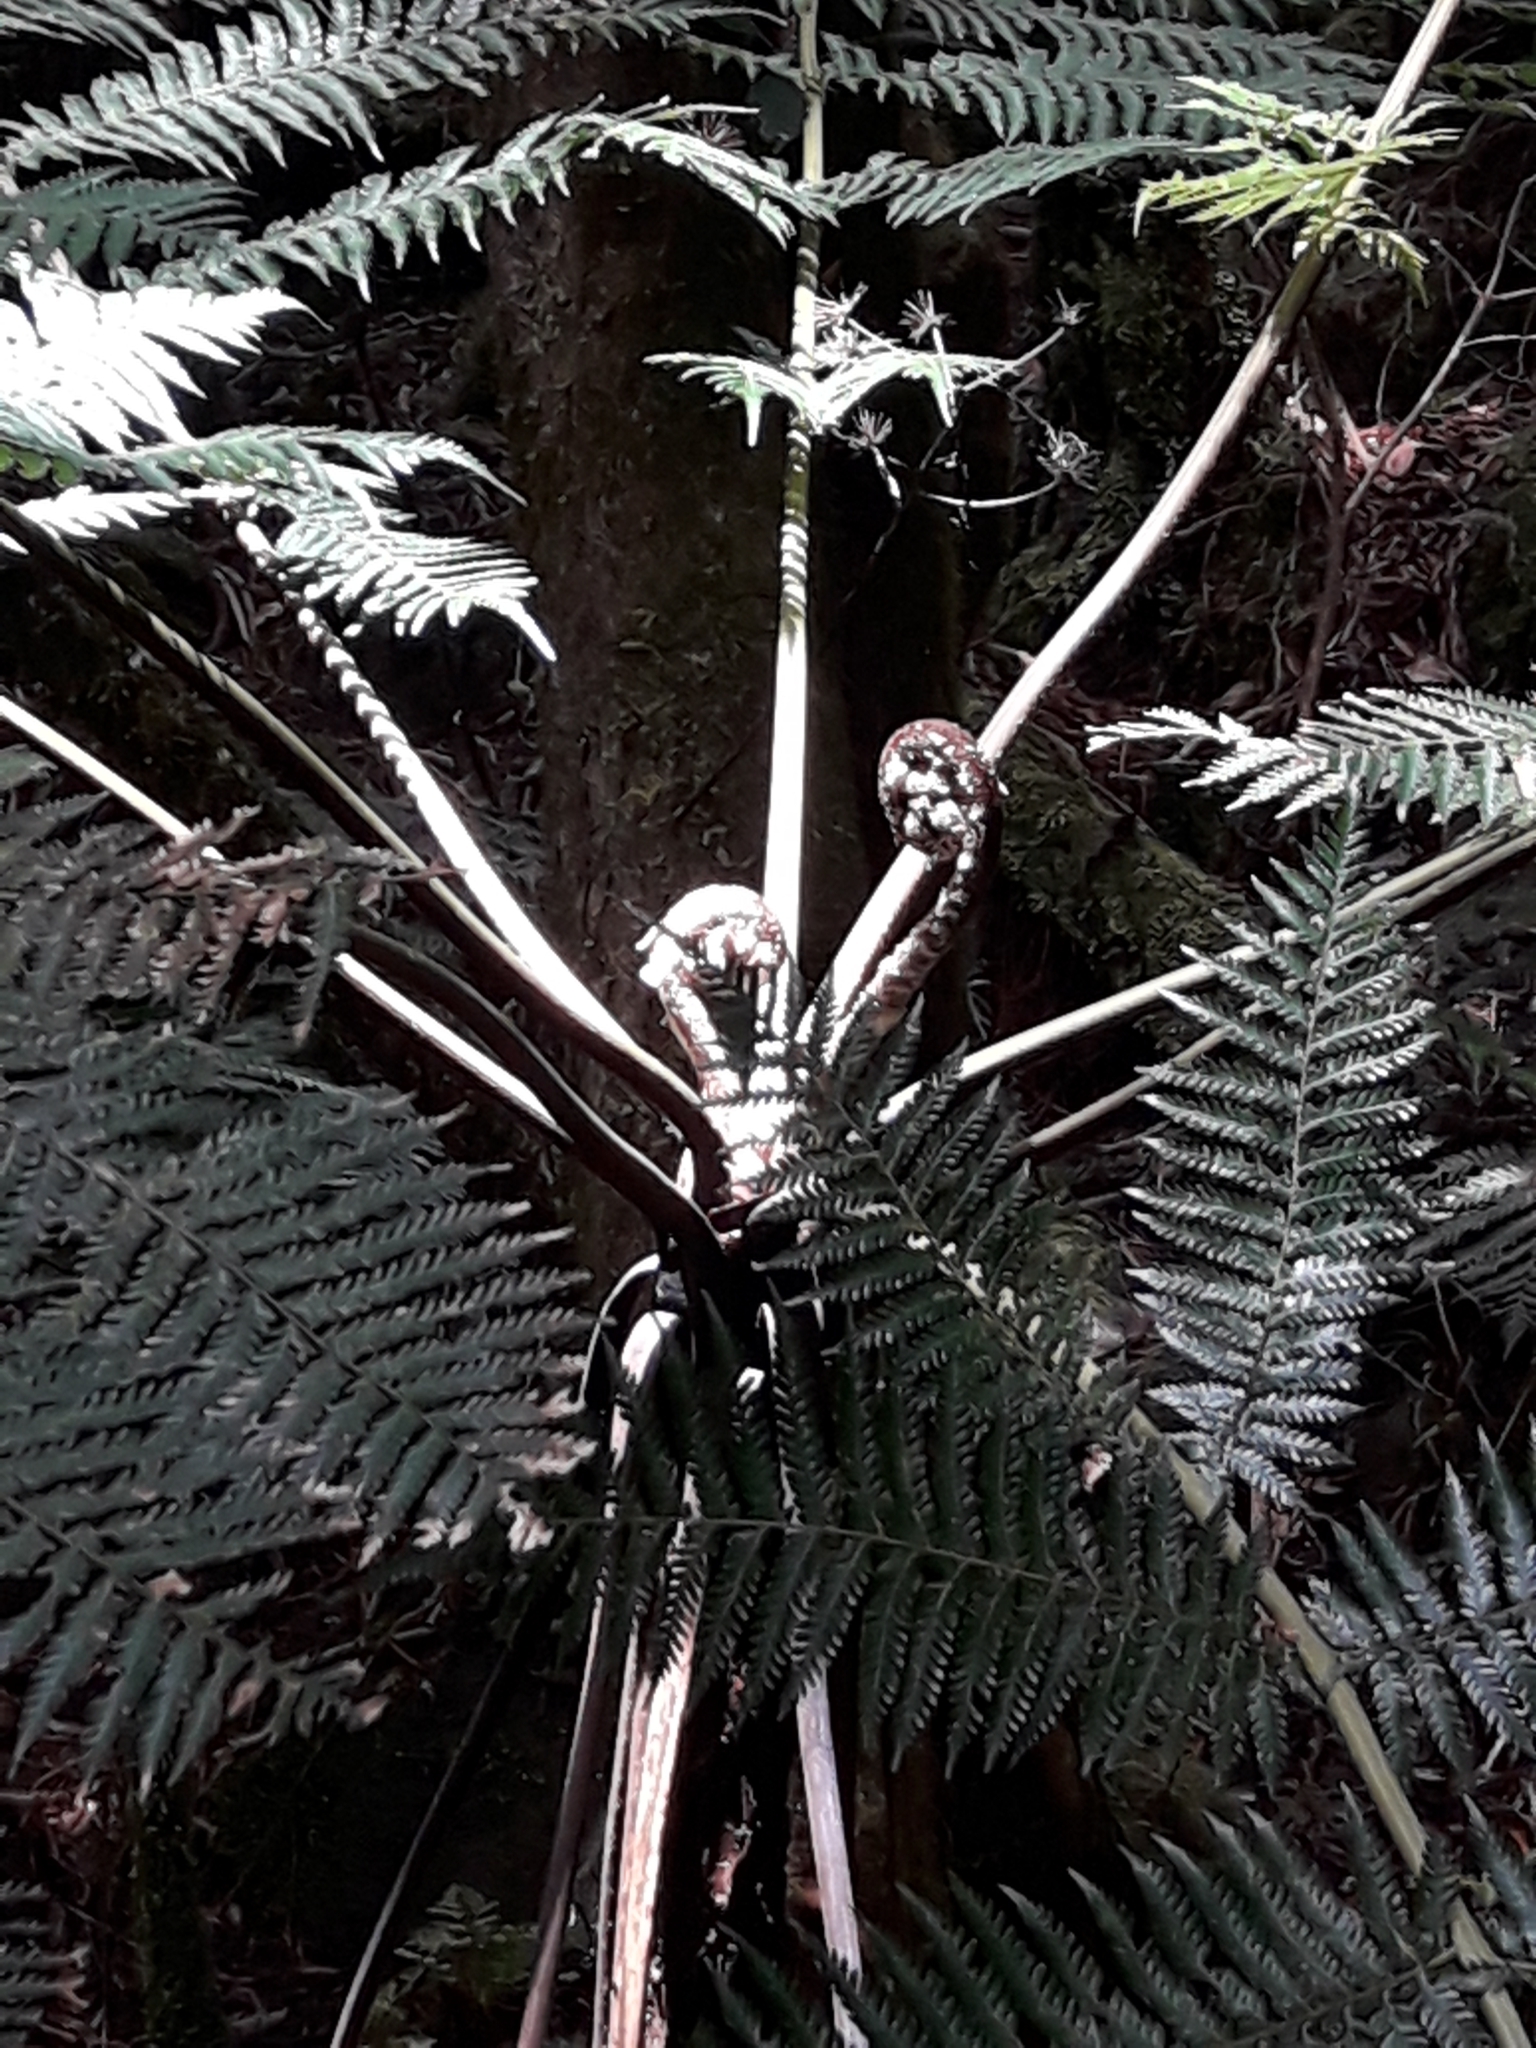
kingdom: Plantae
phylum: Tracheophyta
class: Polypodiopsida
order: Cyatheales
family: Dicksoniaceae
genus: Dicksonia
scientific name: Dicksonia munzingeri
